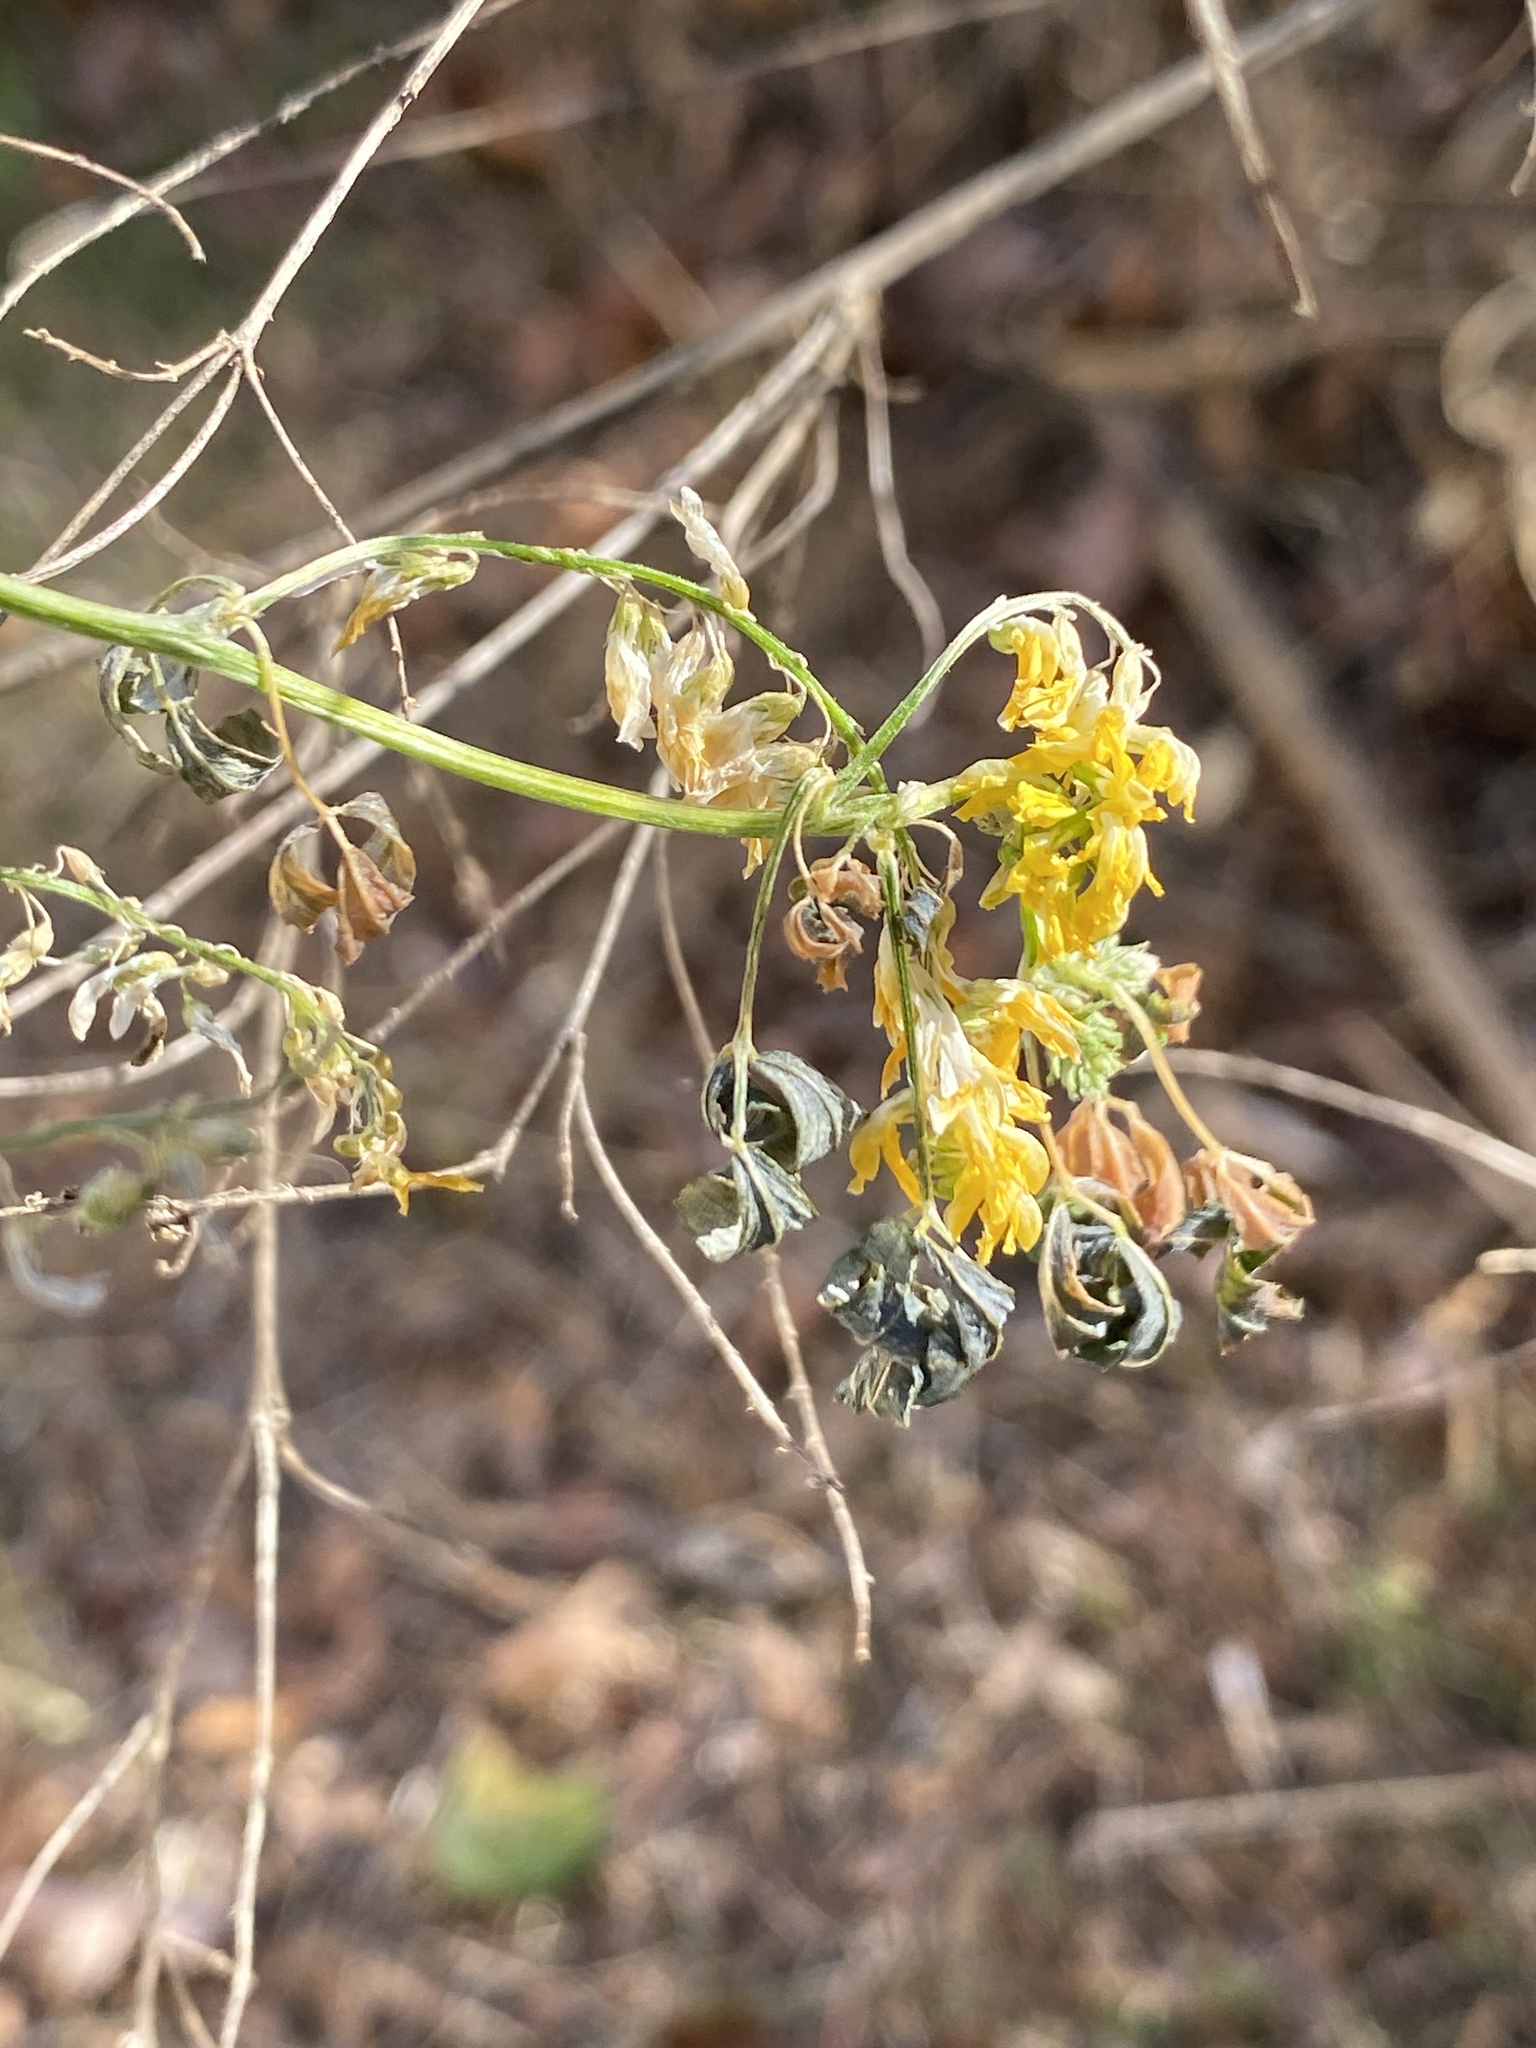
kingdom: Plantae
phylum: Tracheophyta
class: Magnoliopsida
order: Fabales
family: Fabaceae
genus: Melilotus
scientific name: Melilotus officinalis
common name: Sweetclover
